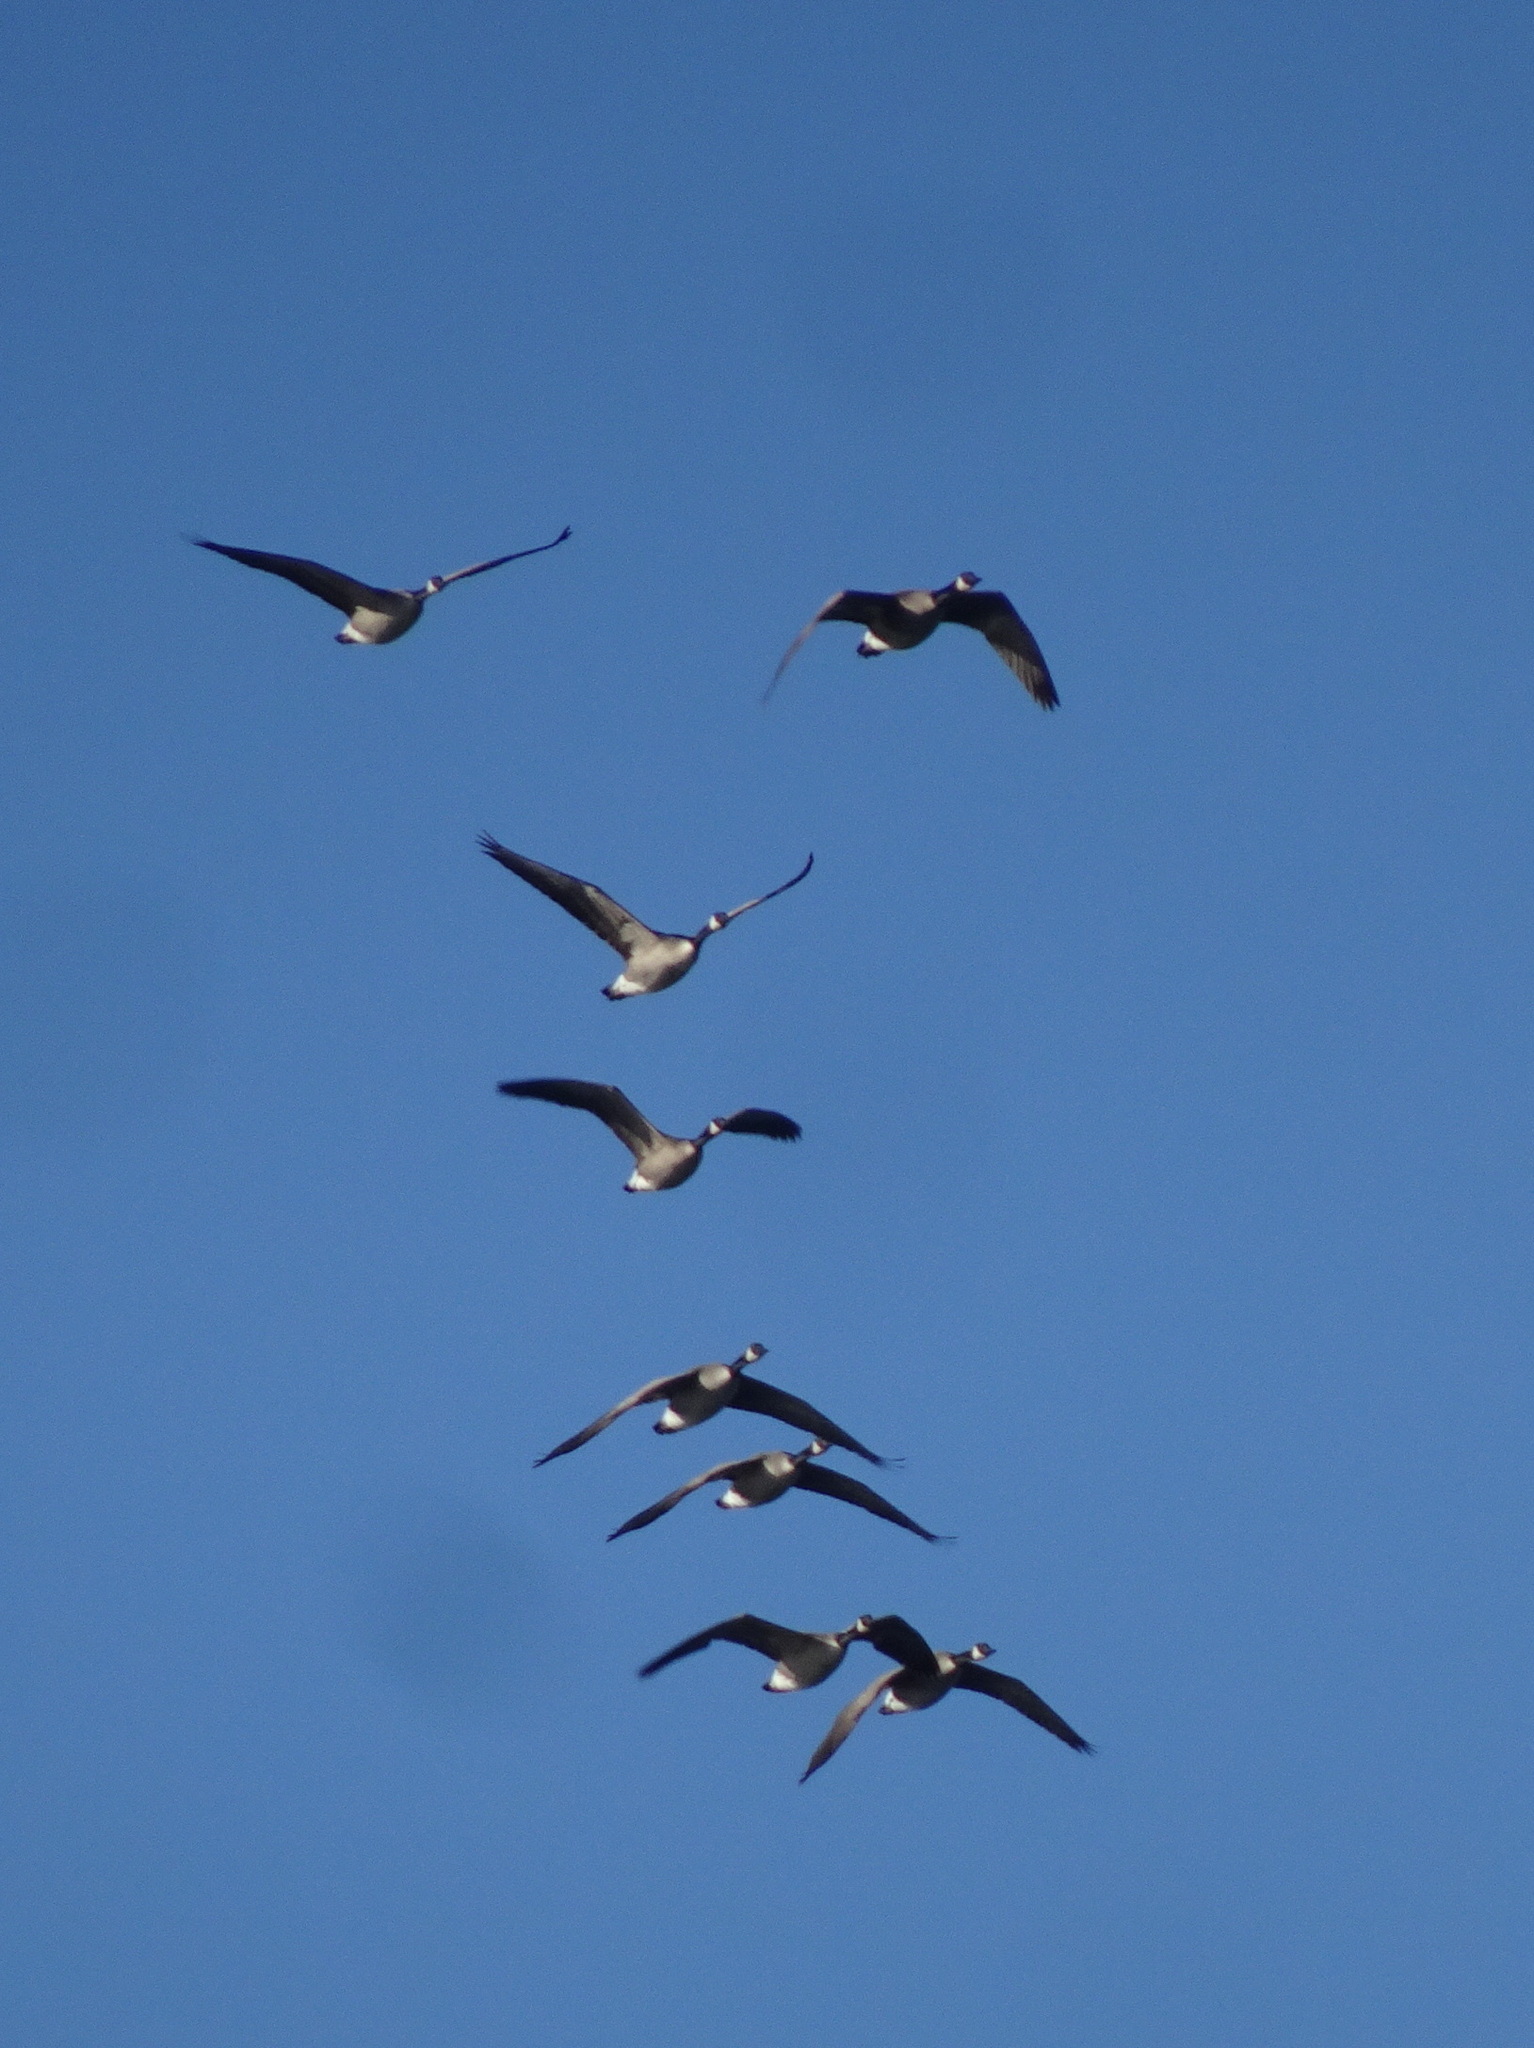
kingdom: Animalia
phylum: Chordata
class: Aves
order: Anseriformes
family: Anatidae
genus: Branta
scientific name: Branta canadensis
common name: Canada goose
